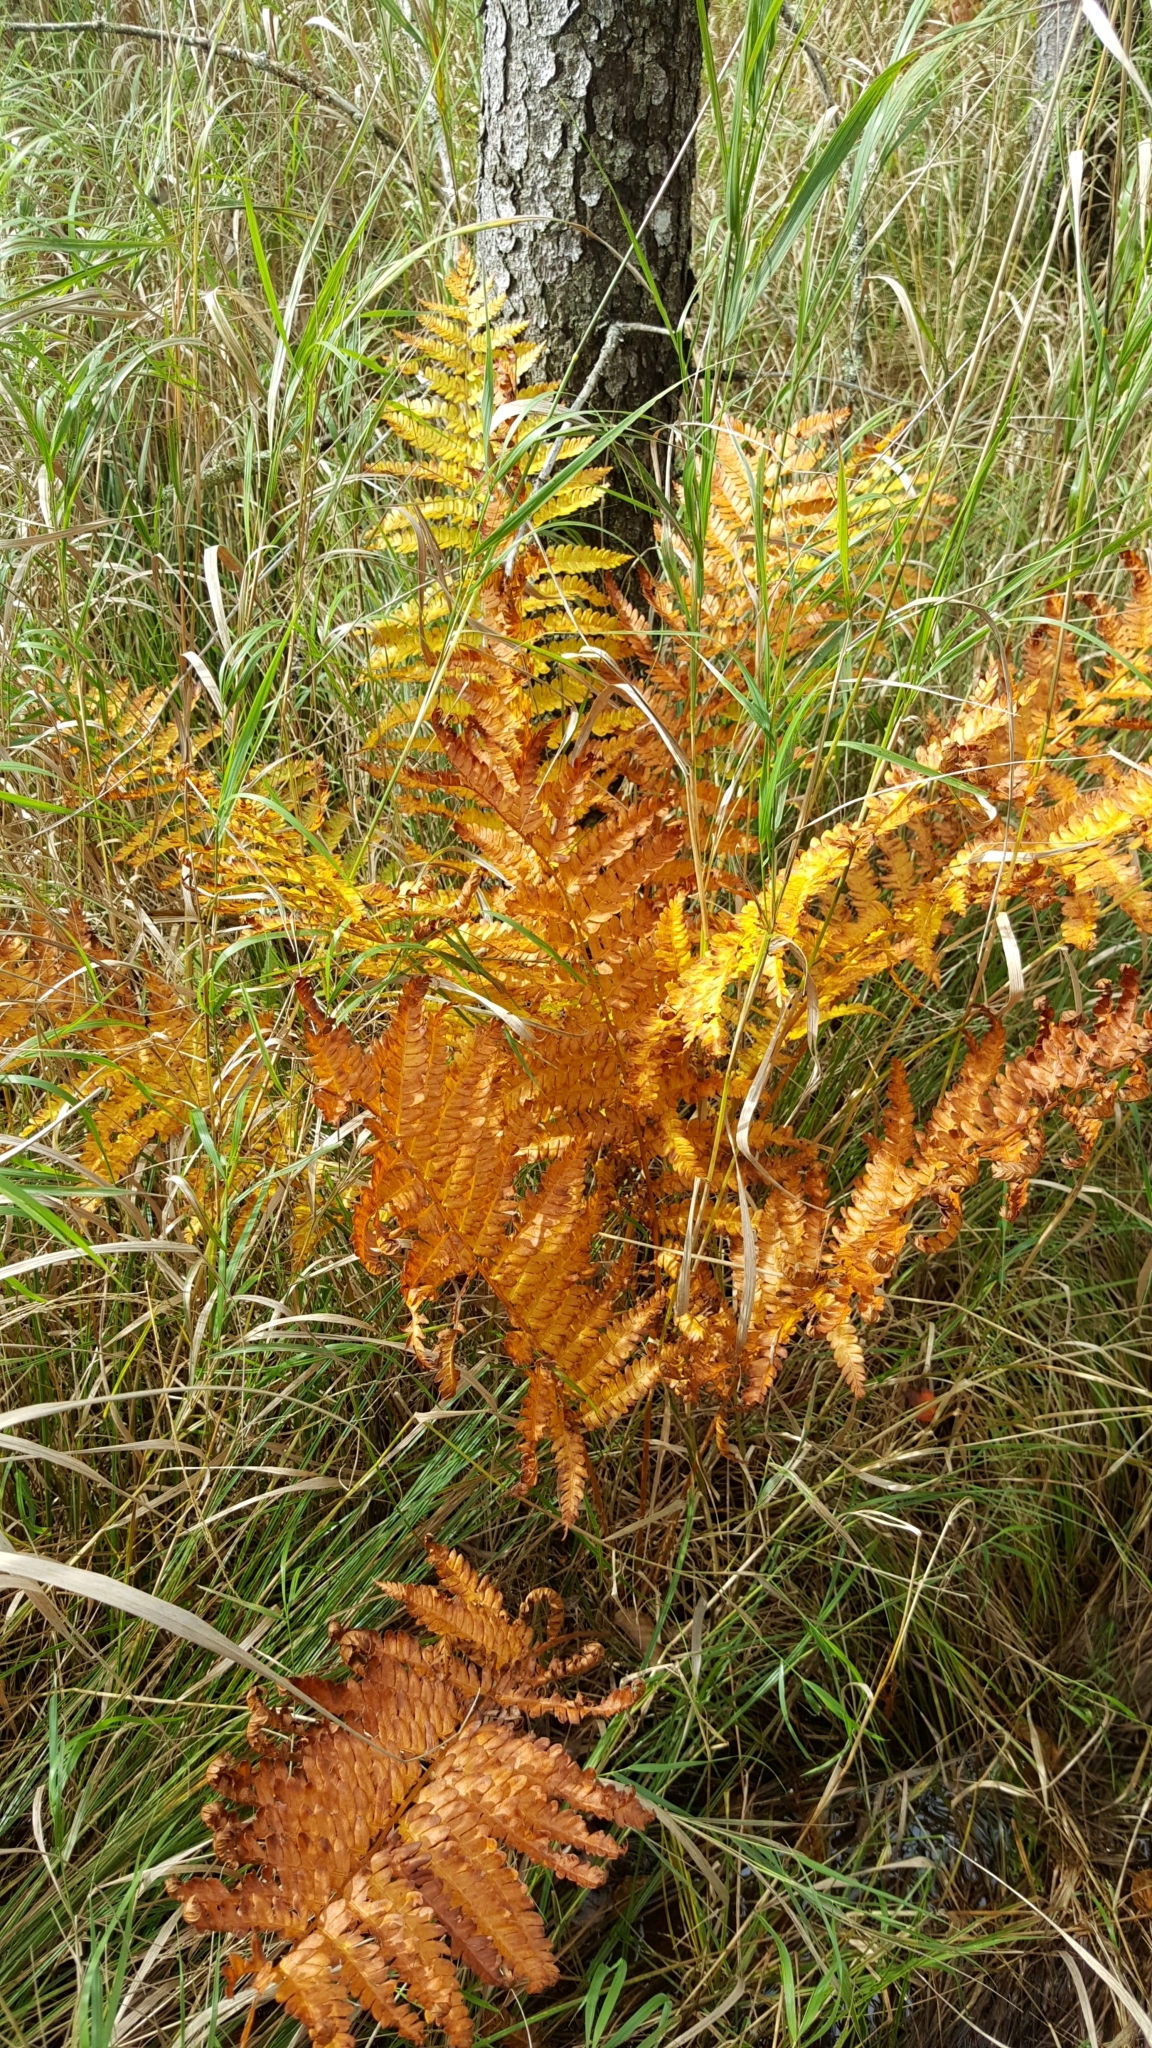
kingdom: Plantae
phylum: Tracheophyta
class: Polypodiopsida
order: Osmundales
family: Osmundaceae
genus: Osmundastrum
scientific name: Osmundastrum cinnamomeum
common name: Cinnamon fern
